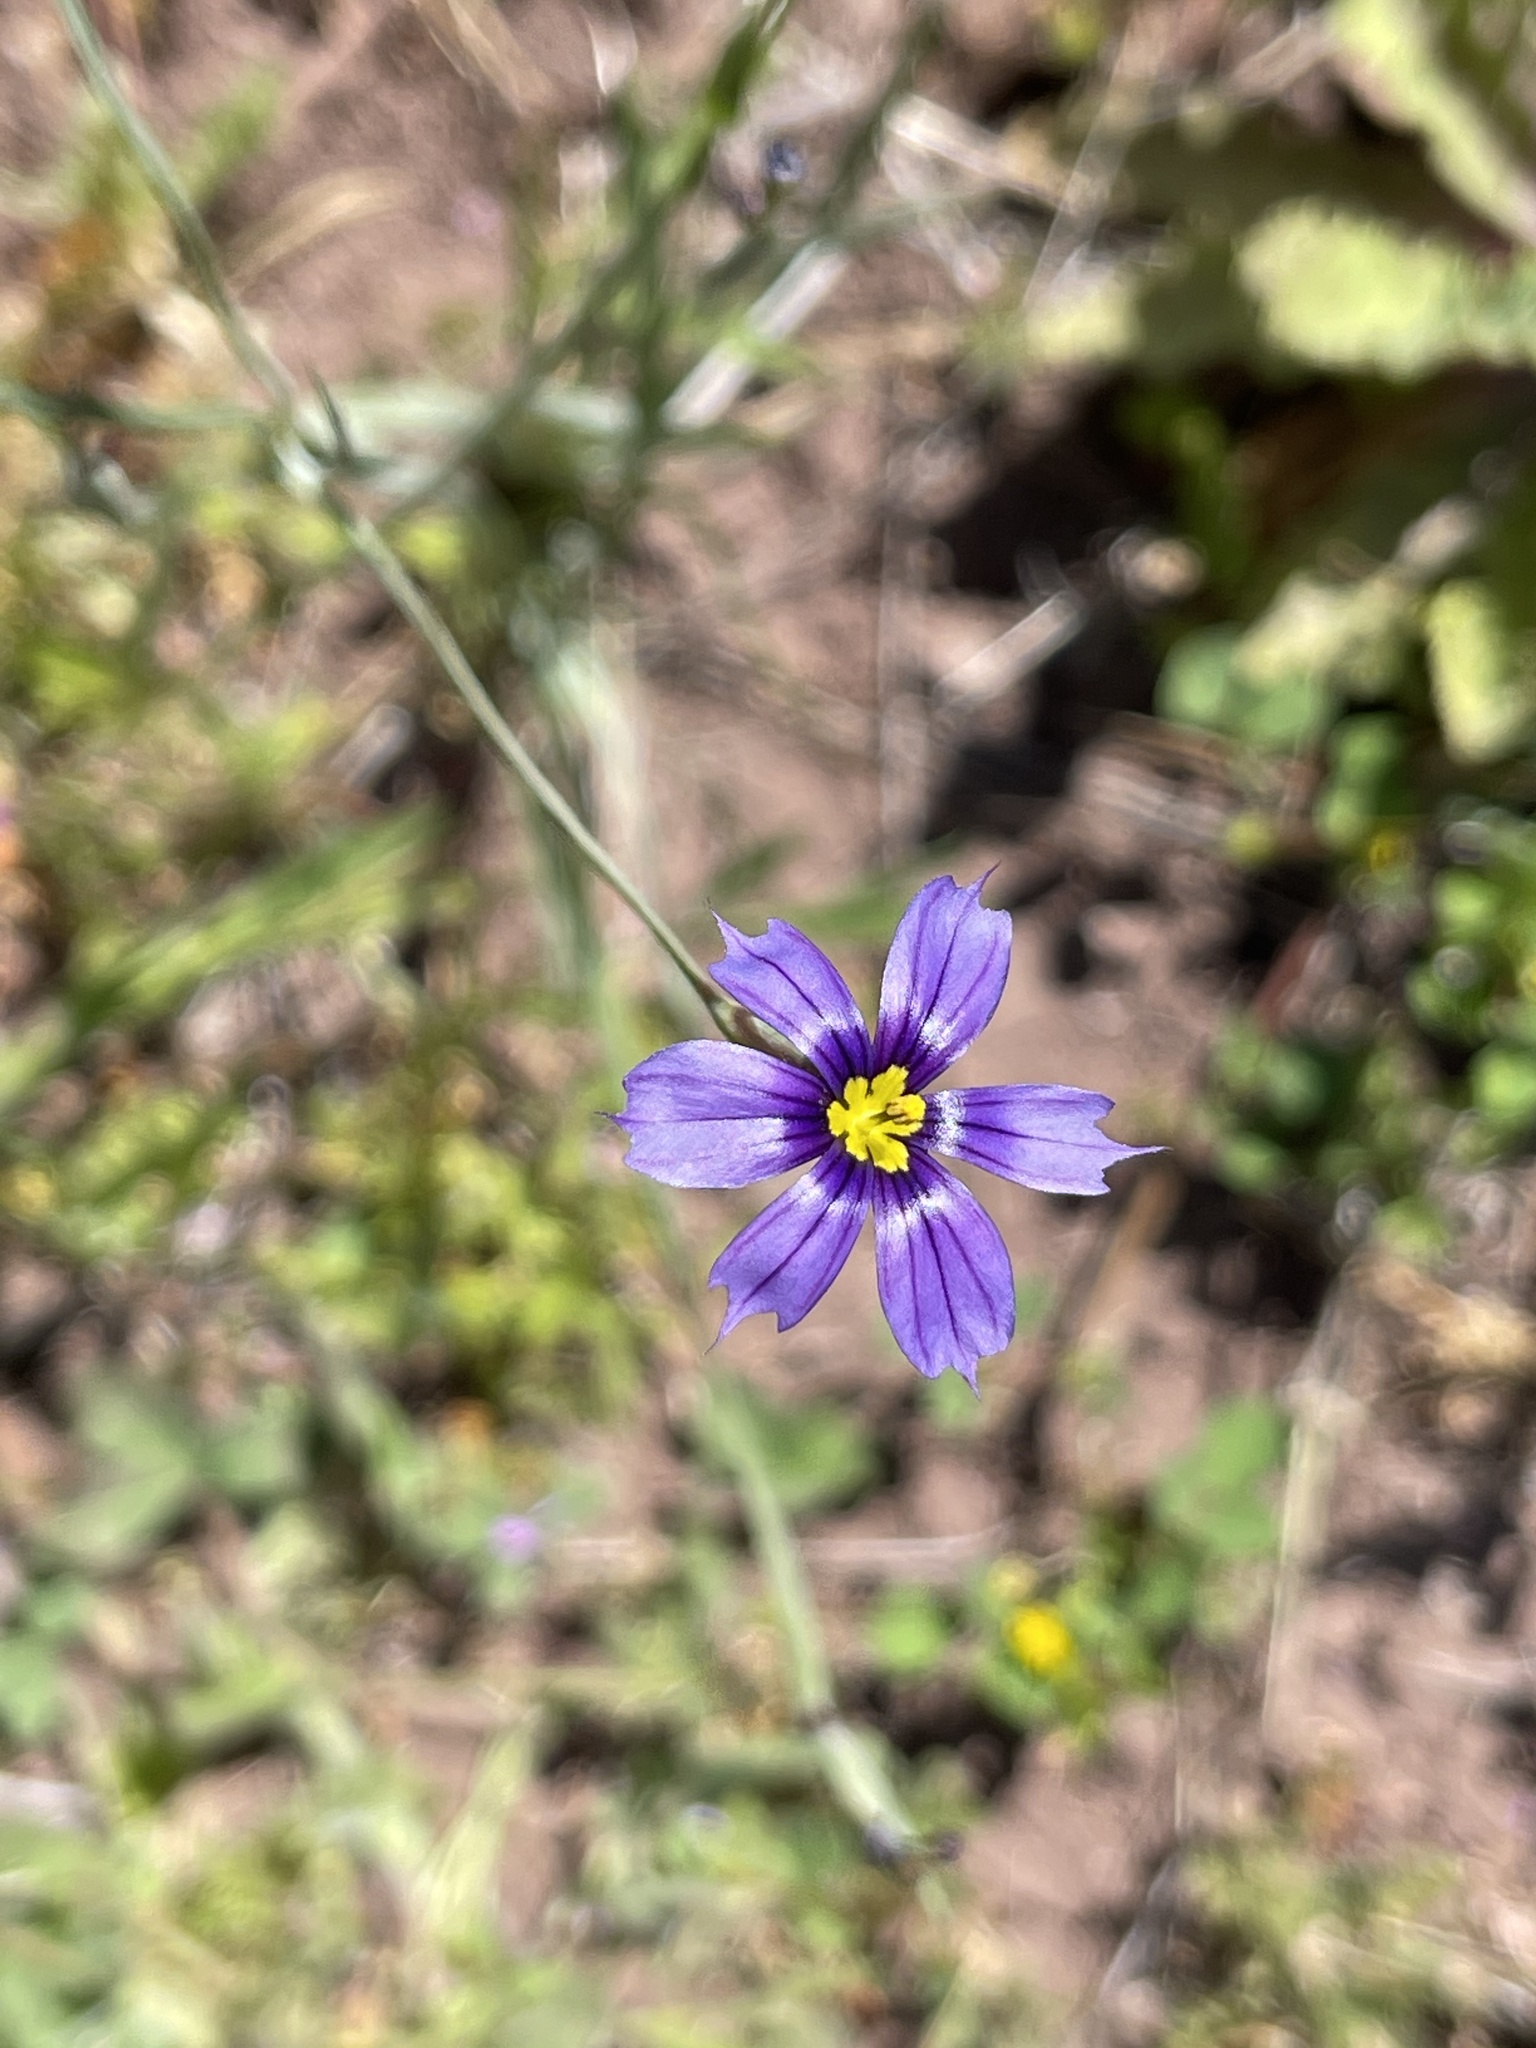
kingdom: Plantae
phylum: Tracheophyta
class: Liliopsida
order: Asparagales
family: Iridaceae
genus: Sisyrinchium
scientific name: Sisyrinchium bellum
